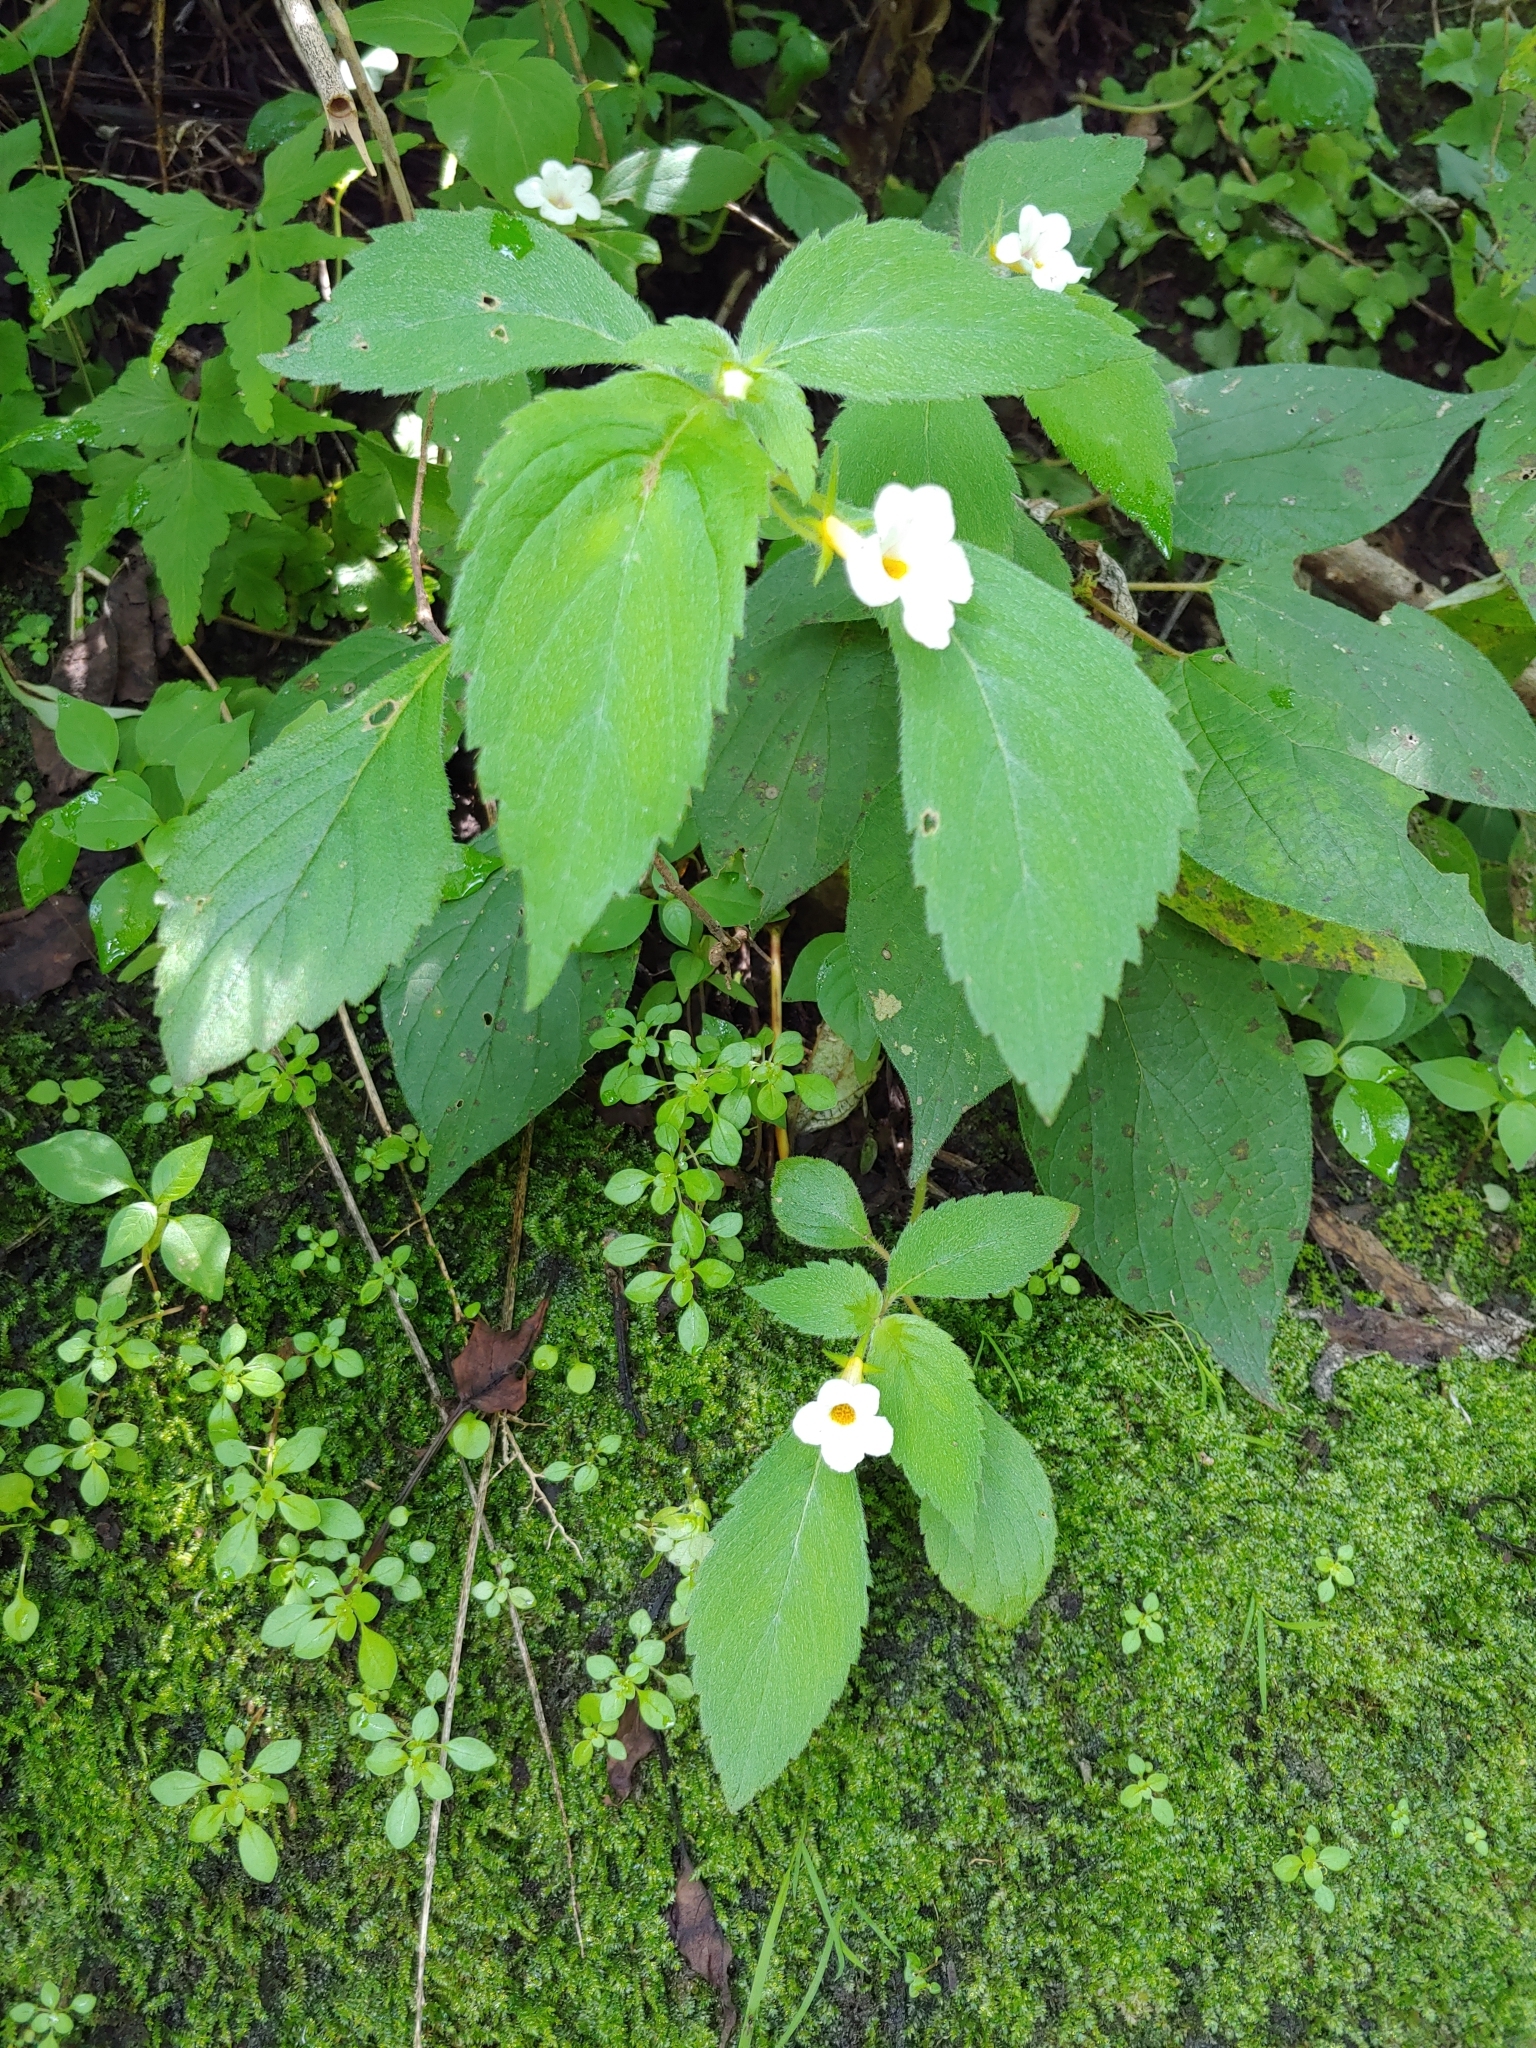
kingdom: Plantae
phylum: Tracheophyta
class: Magnoliopsida
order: Lamiales
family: Gesneriaceae
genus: Achimenes
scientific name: Achimenes occidentalis
